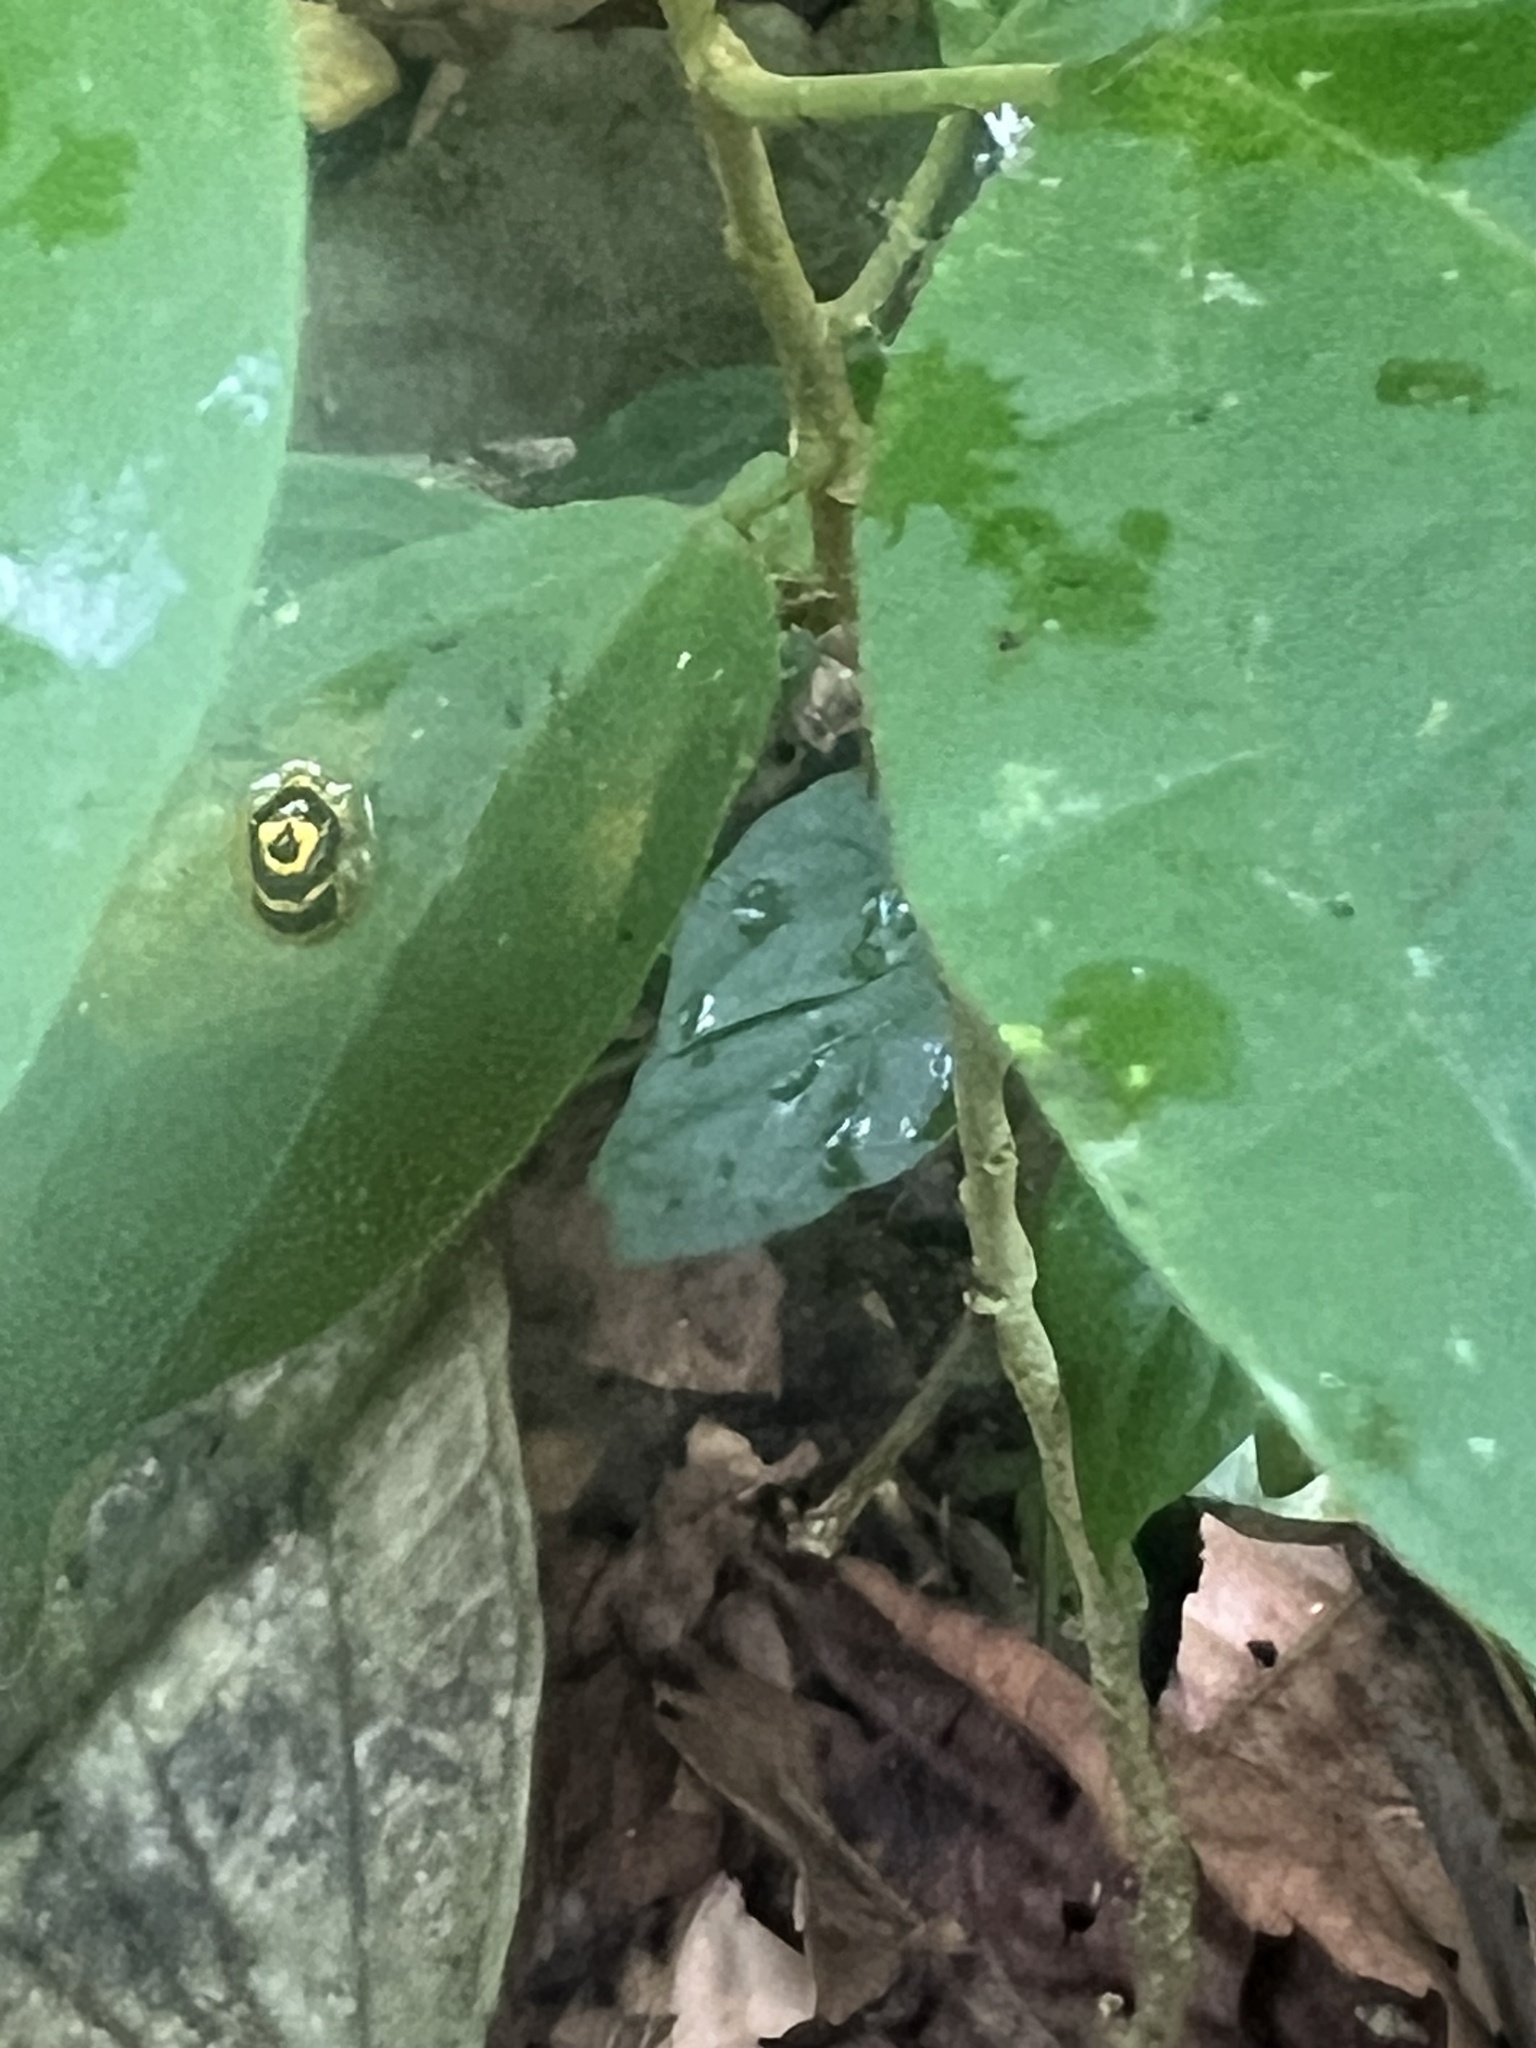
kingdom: Animalia
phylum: Arthropoda
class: Insecta
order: Coleoptera
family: Chrysomelidae
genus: Ischnocodia
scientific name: Ischnocodia annulus
